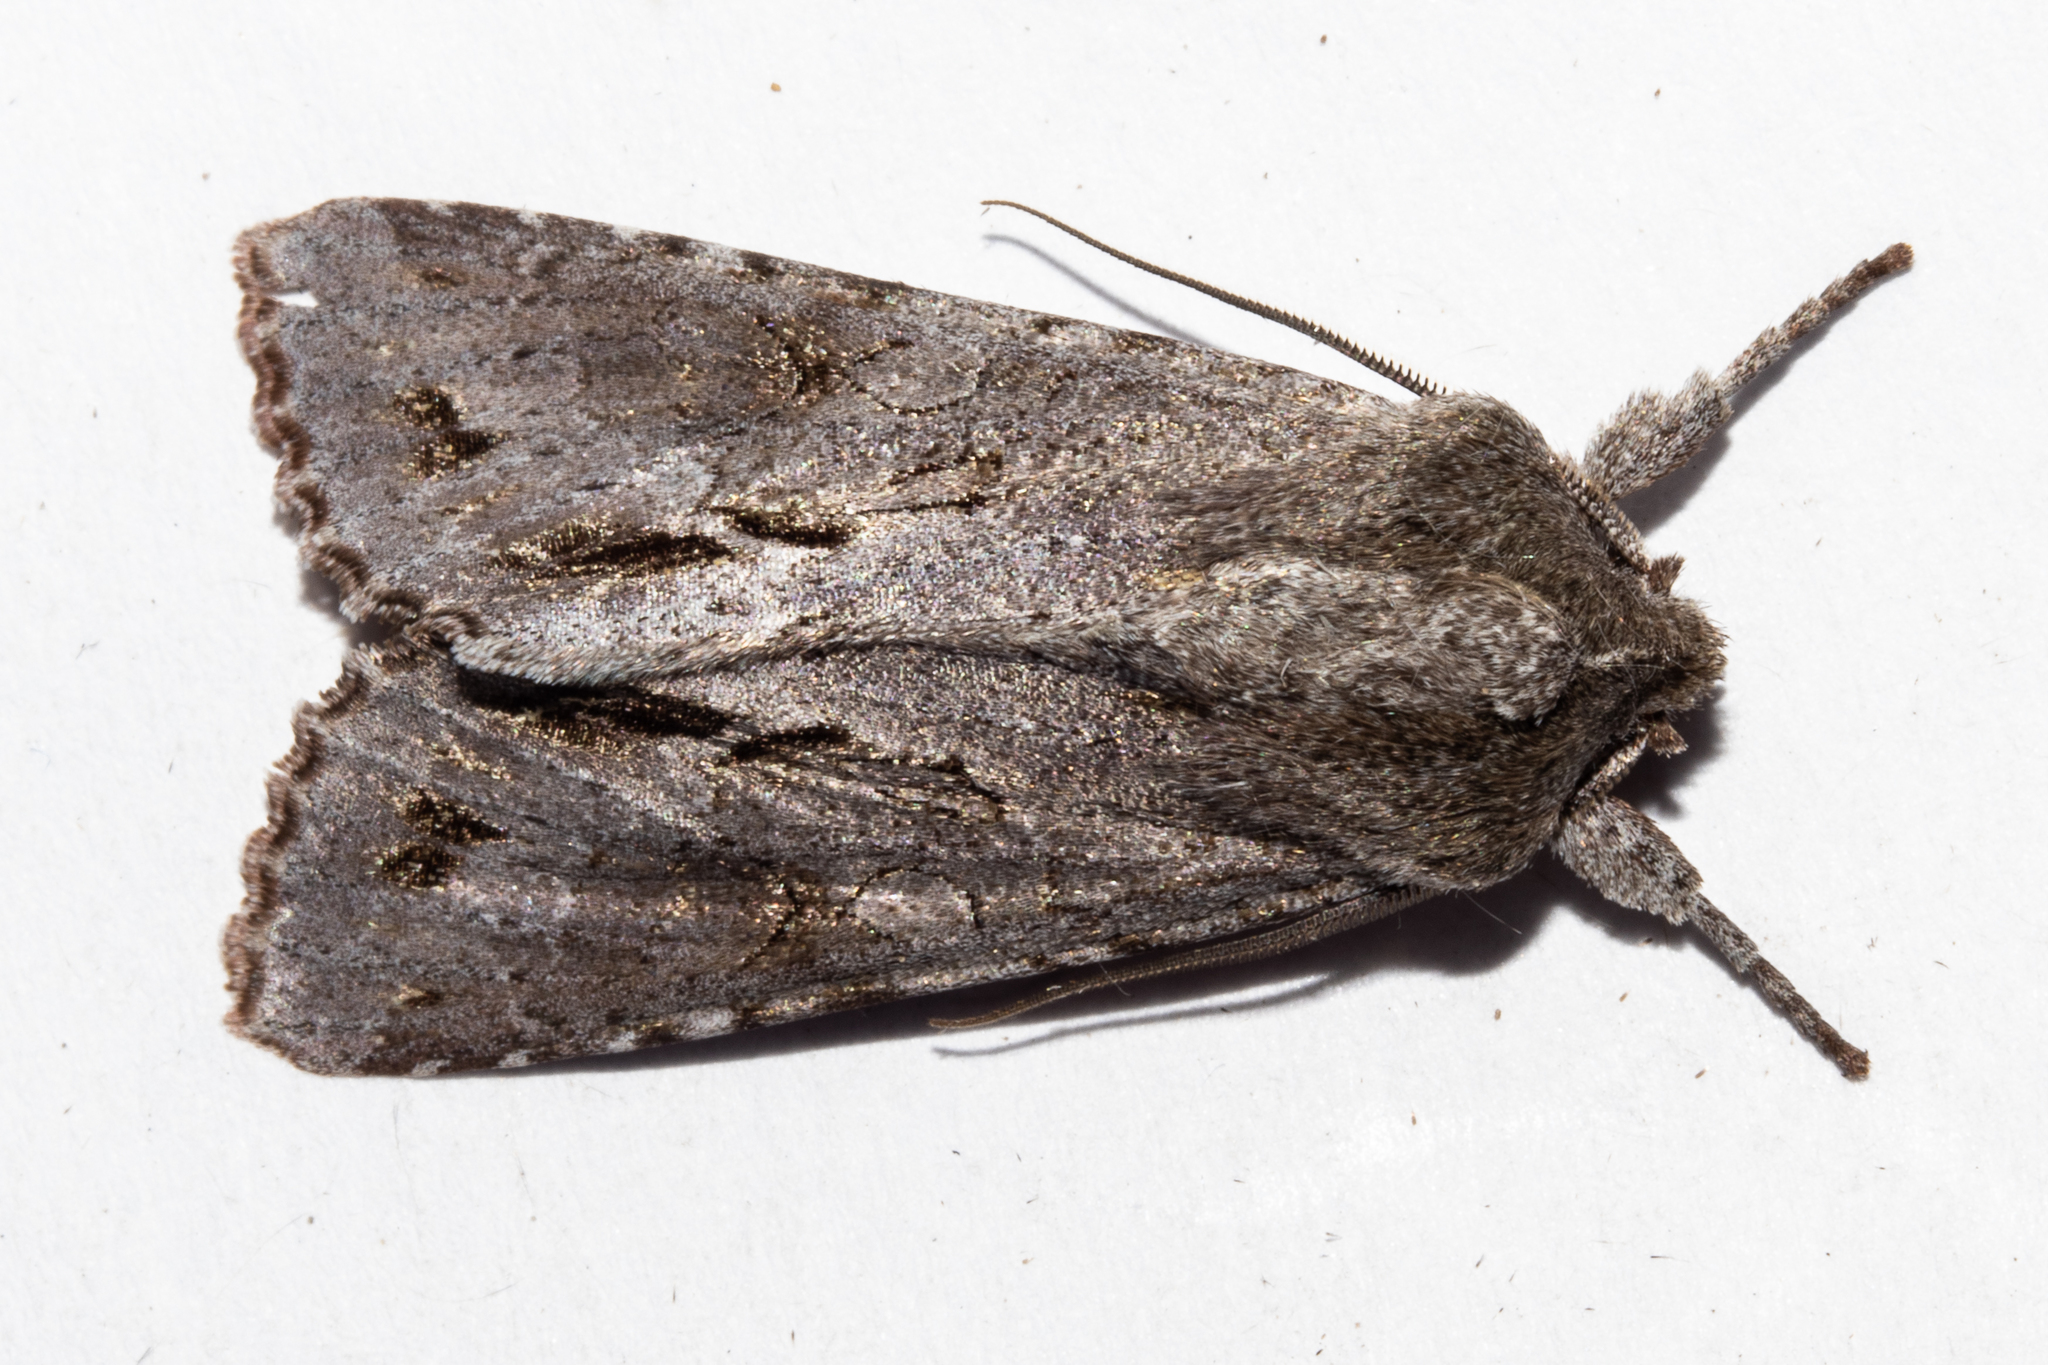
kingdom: Animalia
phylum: Arthropoda
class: Insecta
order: Lepidoptera
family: Noctuidae
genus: Ichneutica
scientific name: Ichneutica
